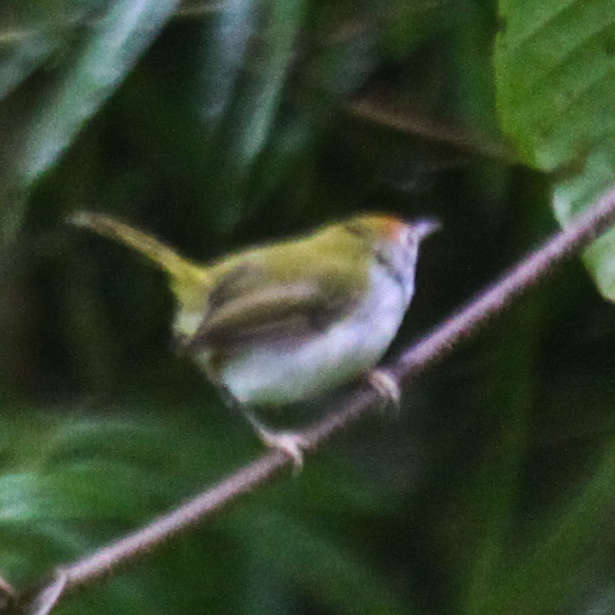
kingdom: Animalia
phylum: Chordata
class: Aves
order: Passeriformes
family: Cisticolidae
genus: Orthotomus
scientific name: Orthotomus sutorius
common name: Common tailorbird
